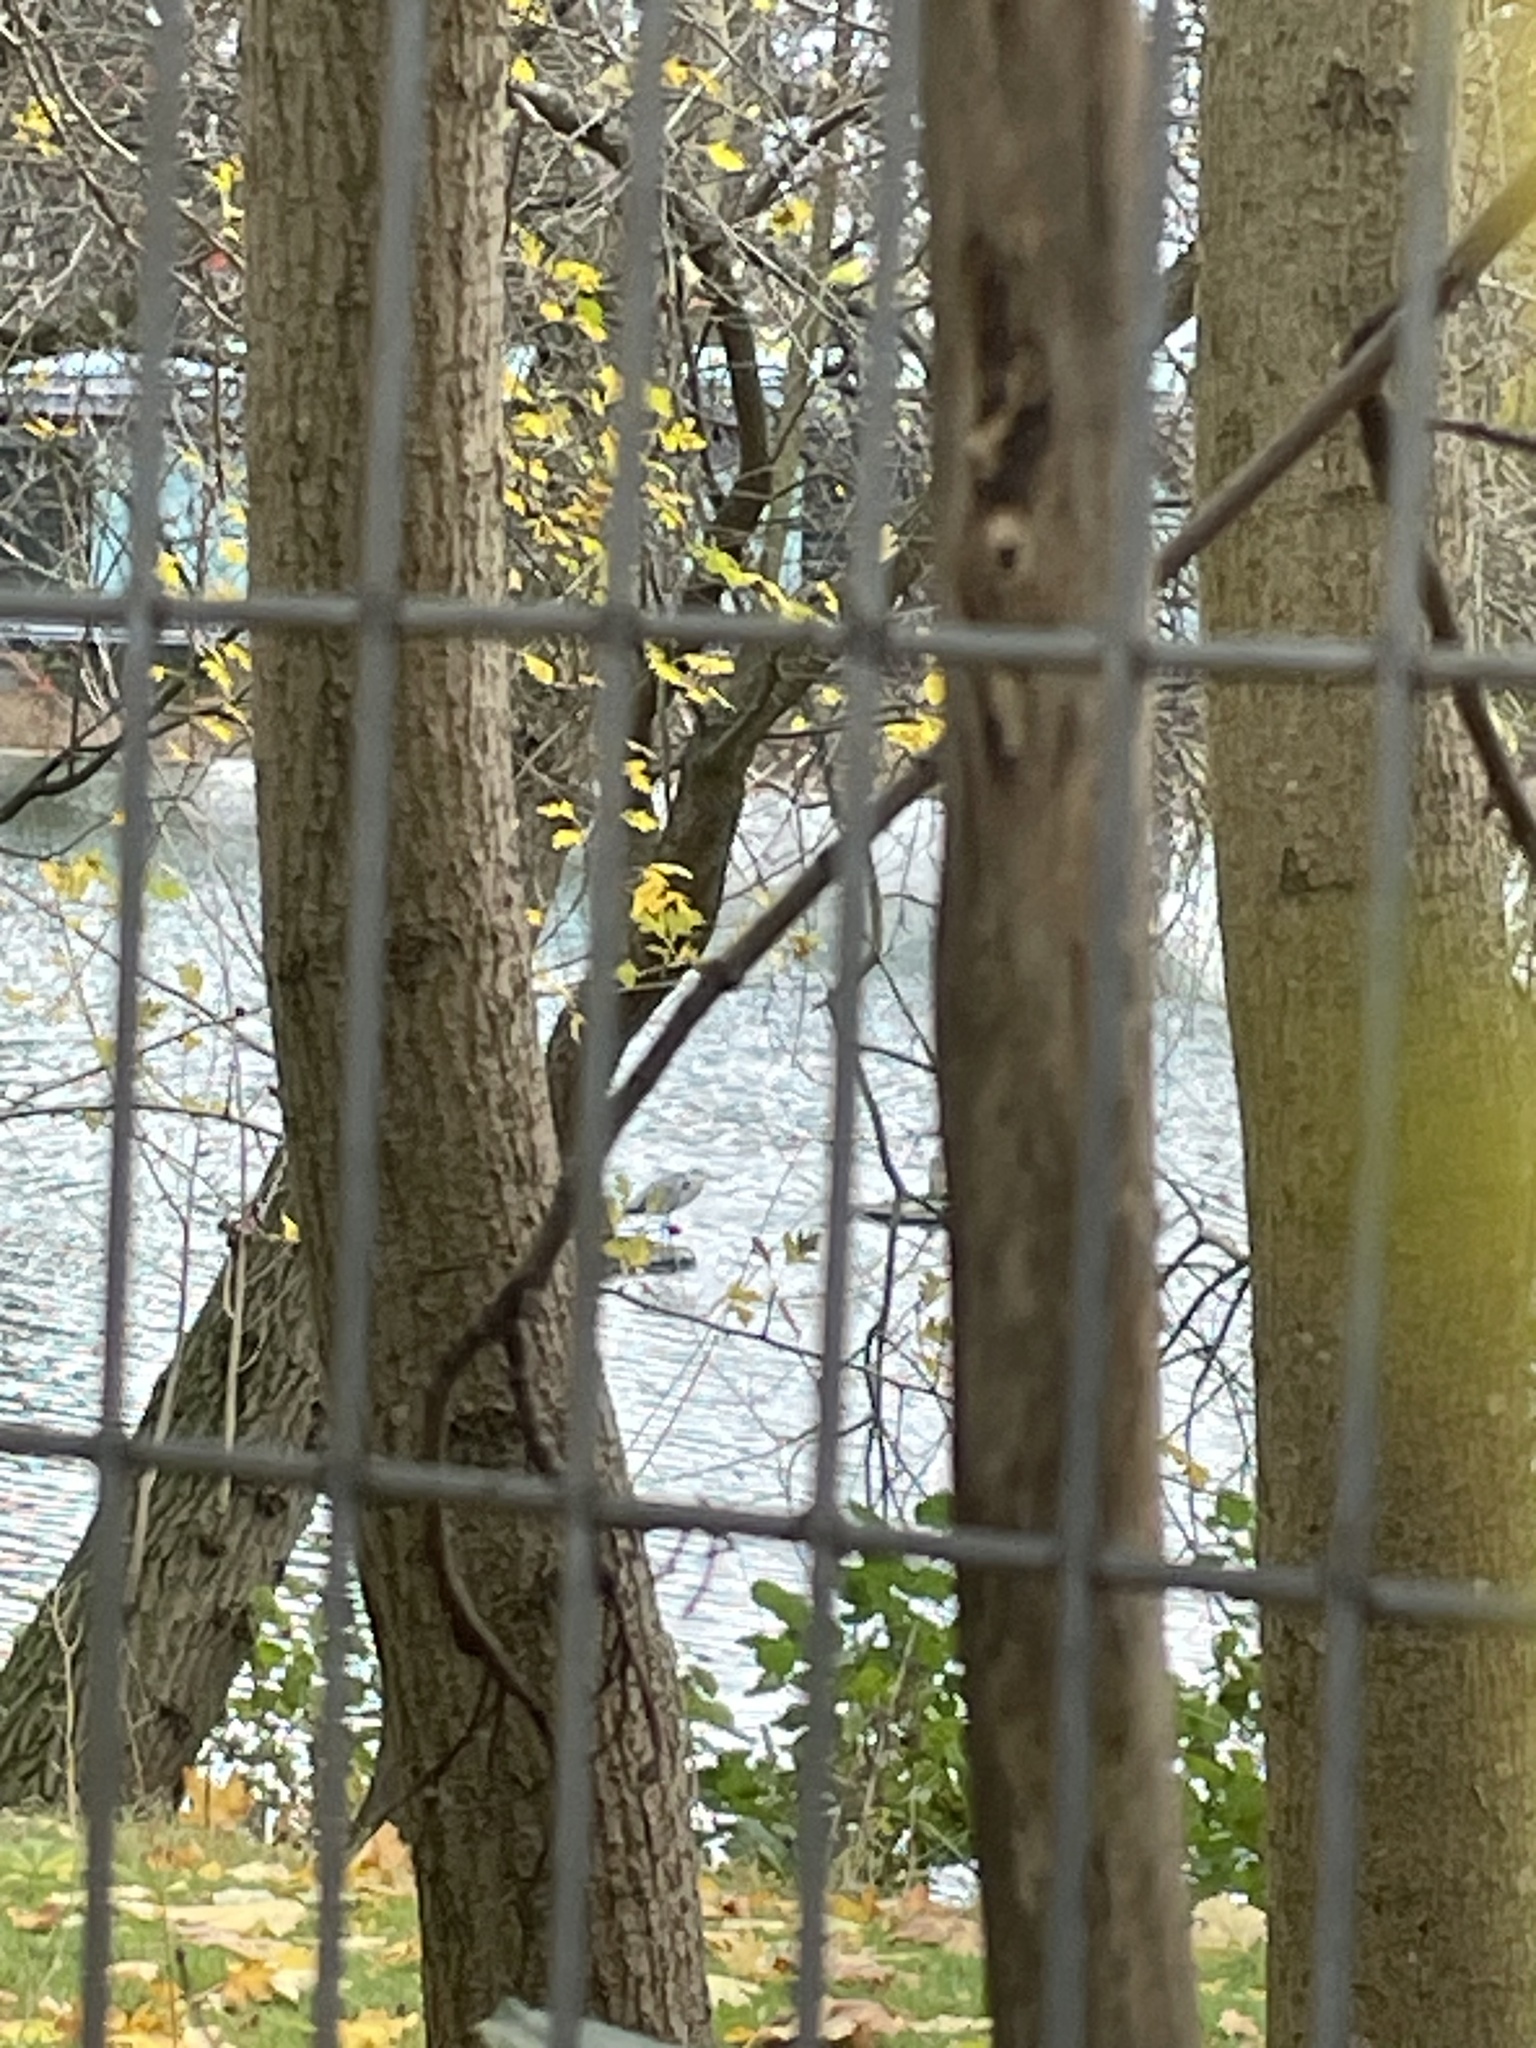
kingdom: Animalia
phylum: Chordata
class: Aves
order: Pelecaniformes
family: Ardeidae
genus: Ardea
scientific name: Ardea cinerea
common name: Grey heron
